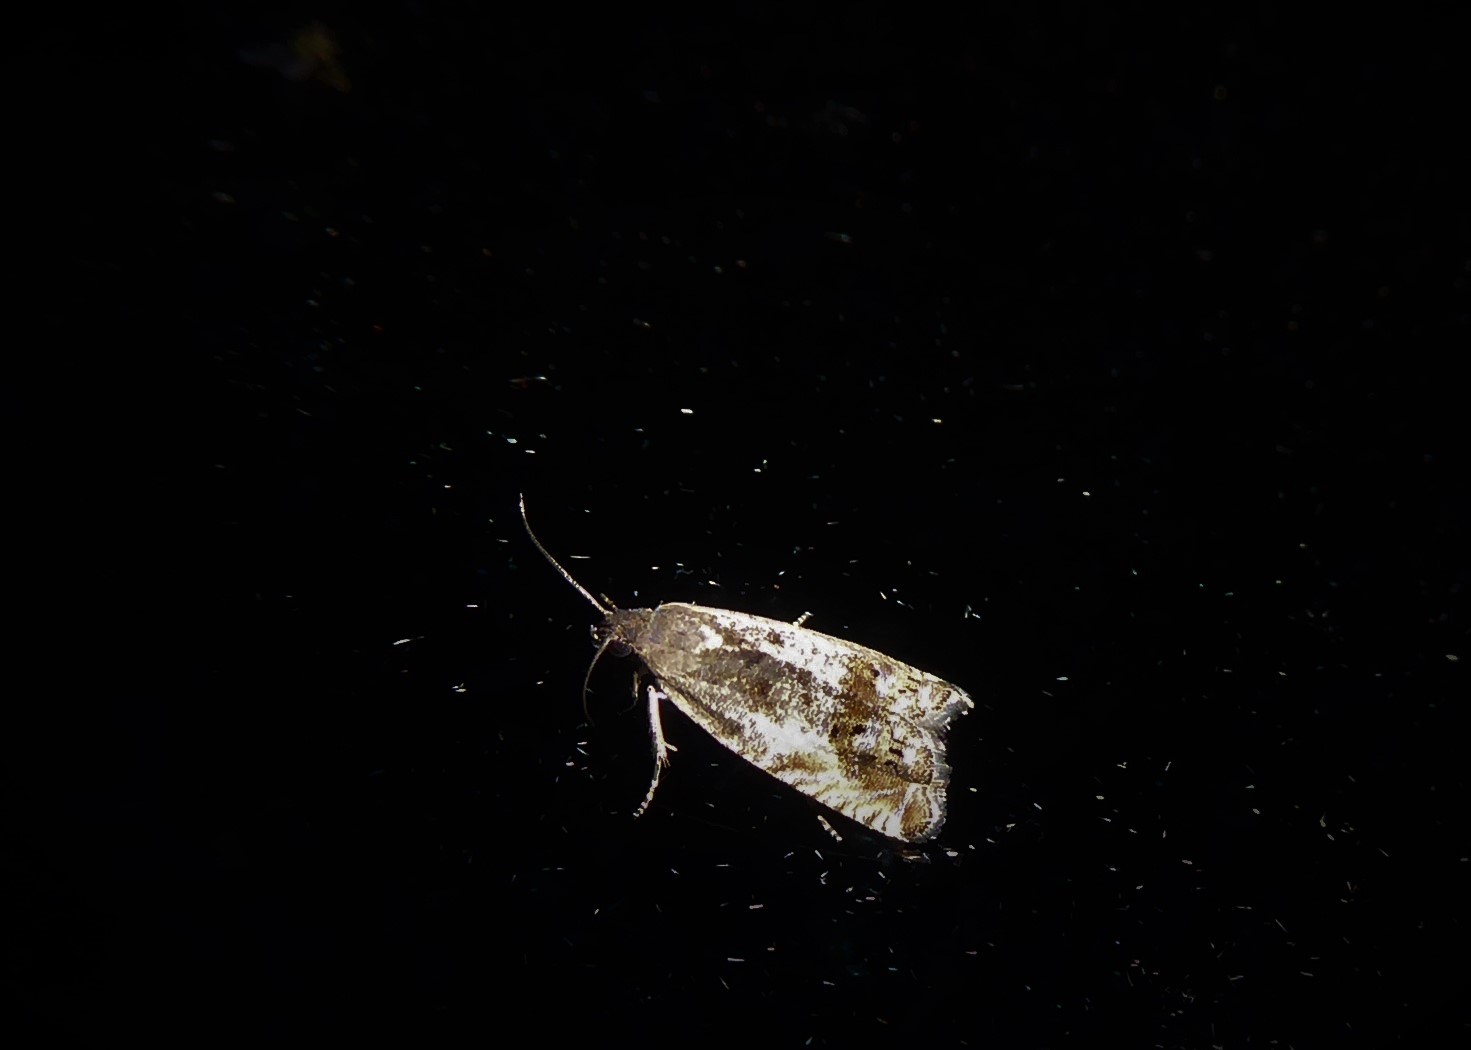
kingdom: Animalia
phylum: Arthropoda
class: Insecta
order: Lepidoptera
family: Tortricidae
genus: Cydia
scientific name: Cydia succedana
